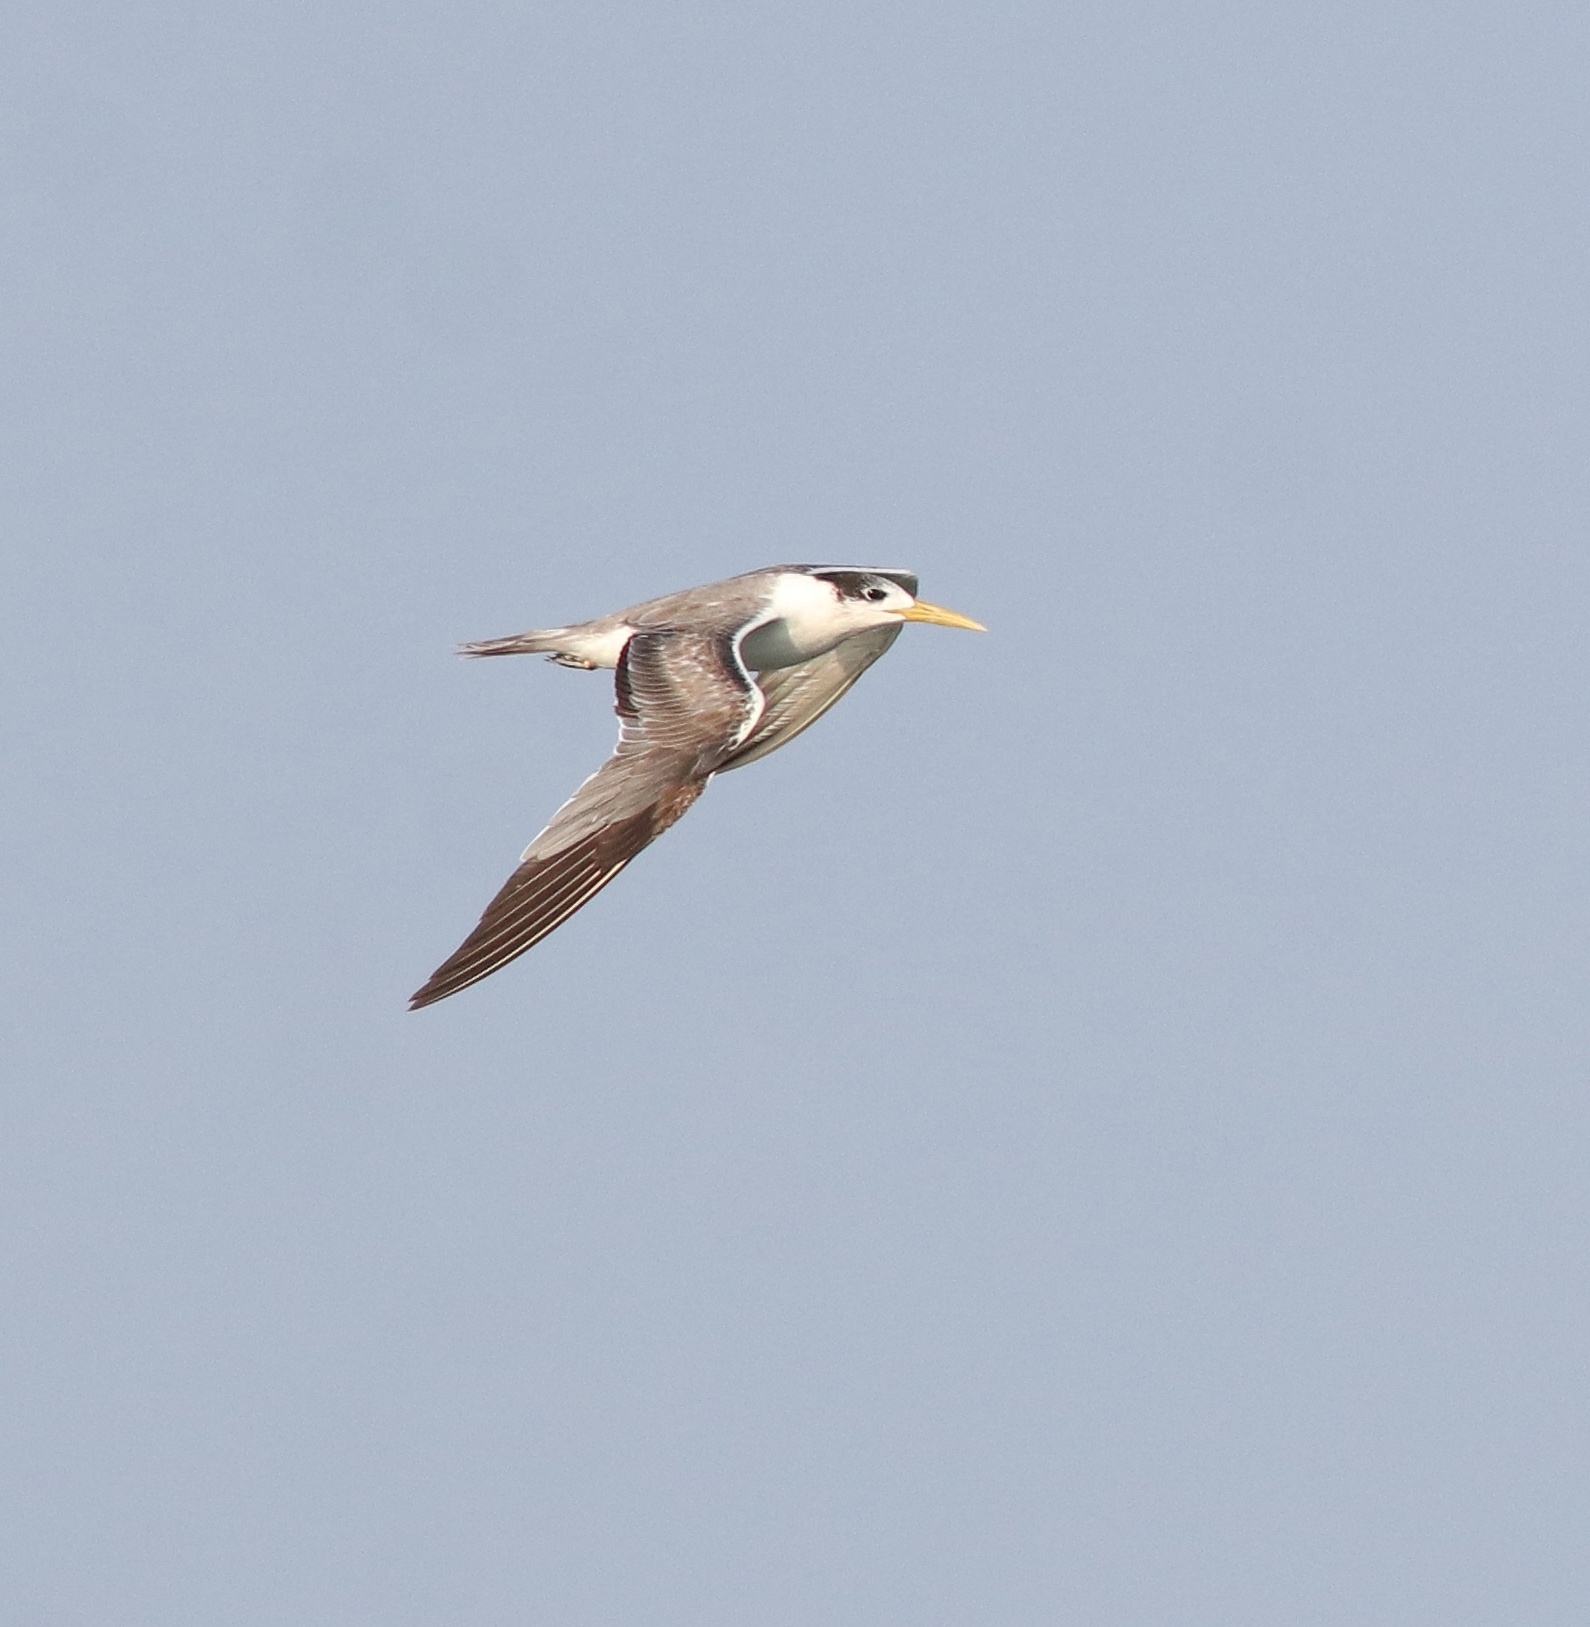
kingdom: Animalia
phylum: Chordata
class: Aves
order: Charadriiformes
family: Laridae
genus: Thalasseus
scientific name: Thalasseus bergii
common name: Greater crested tern
